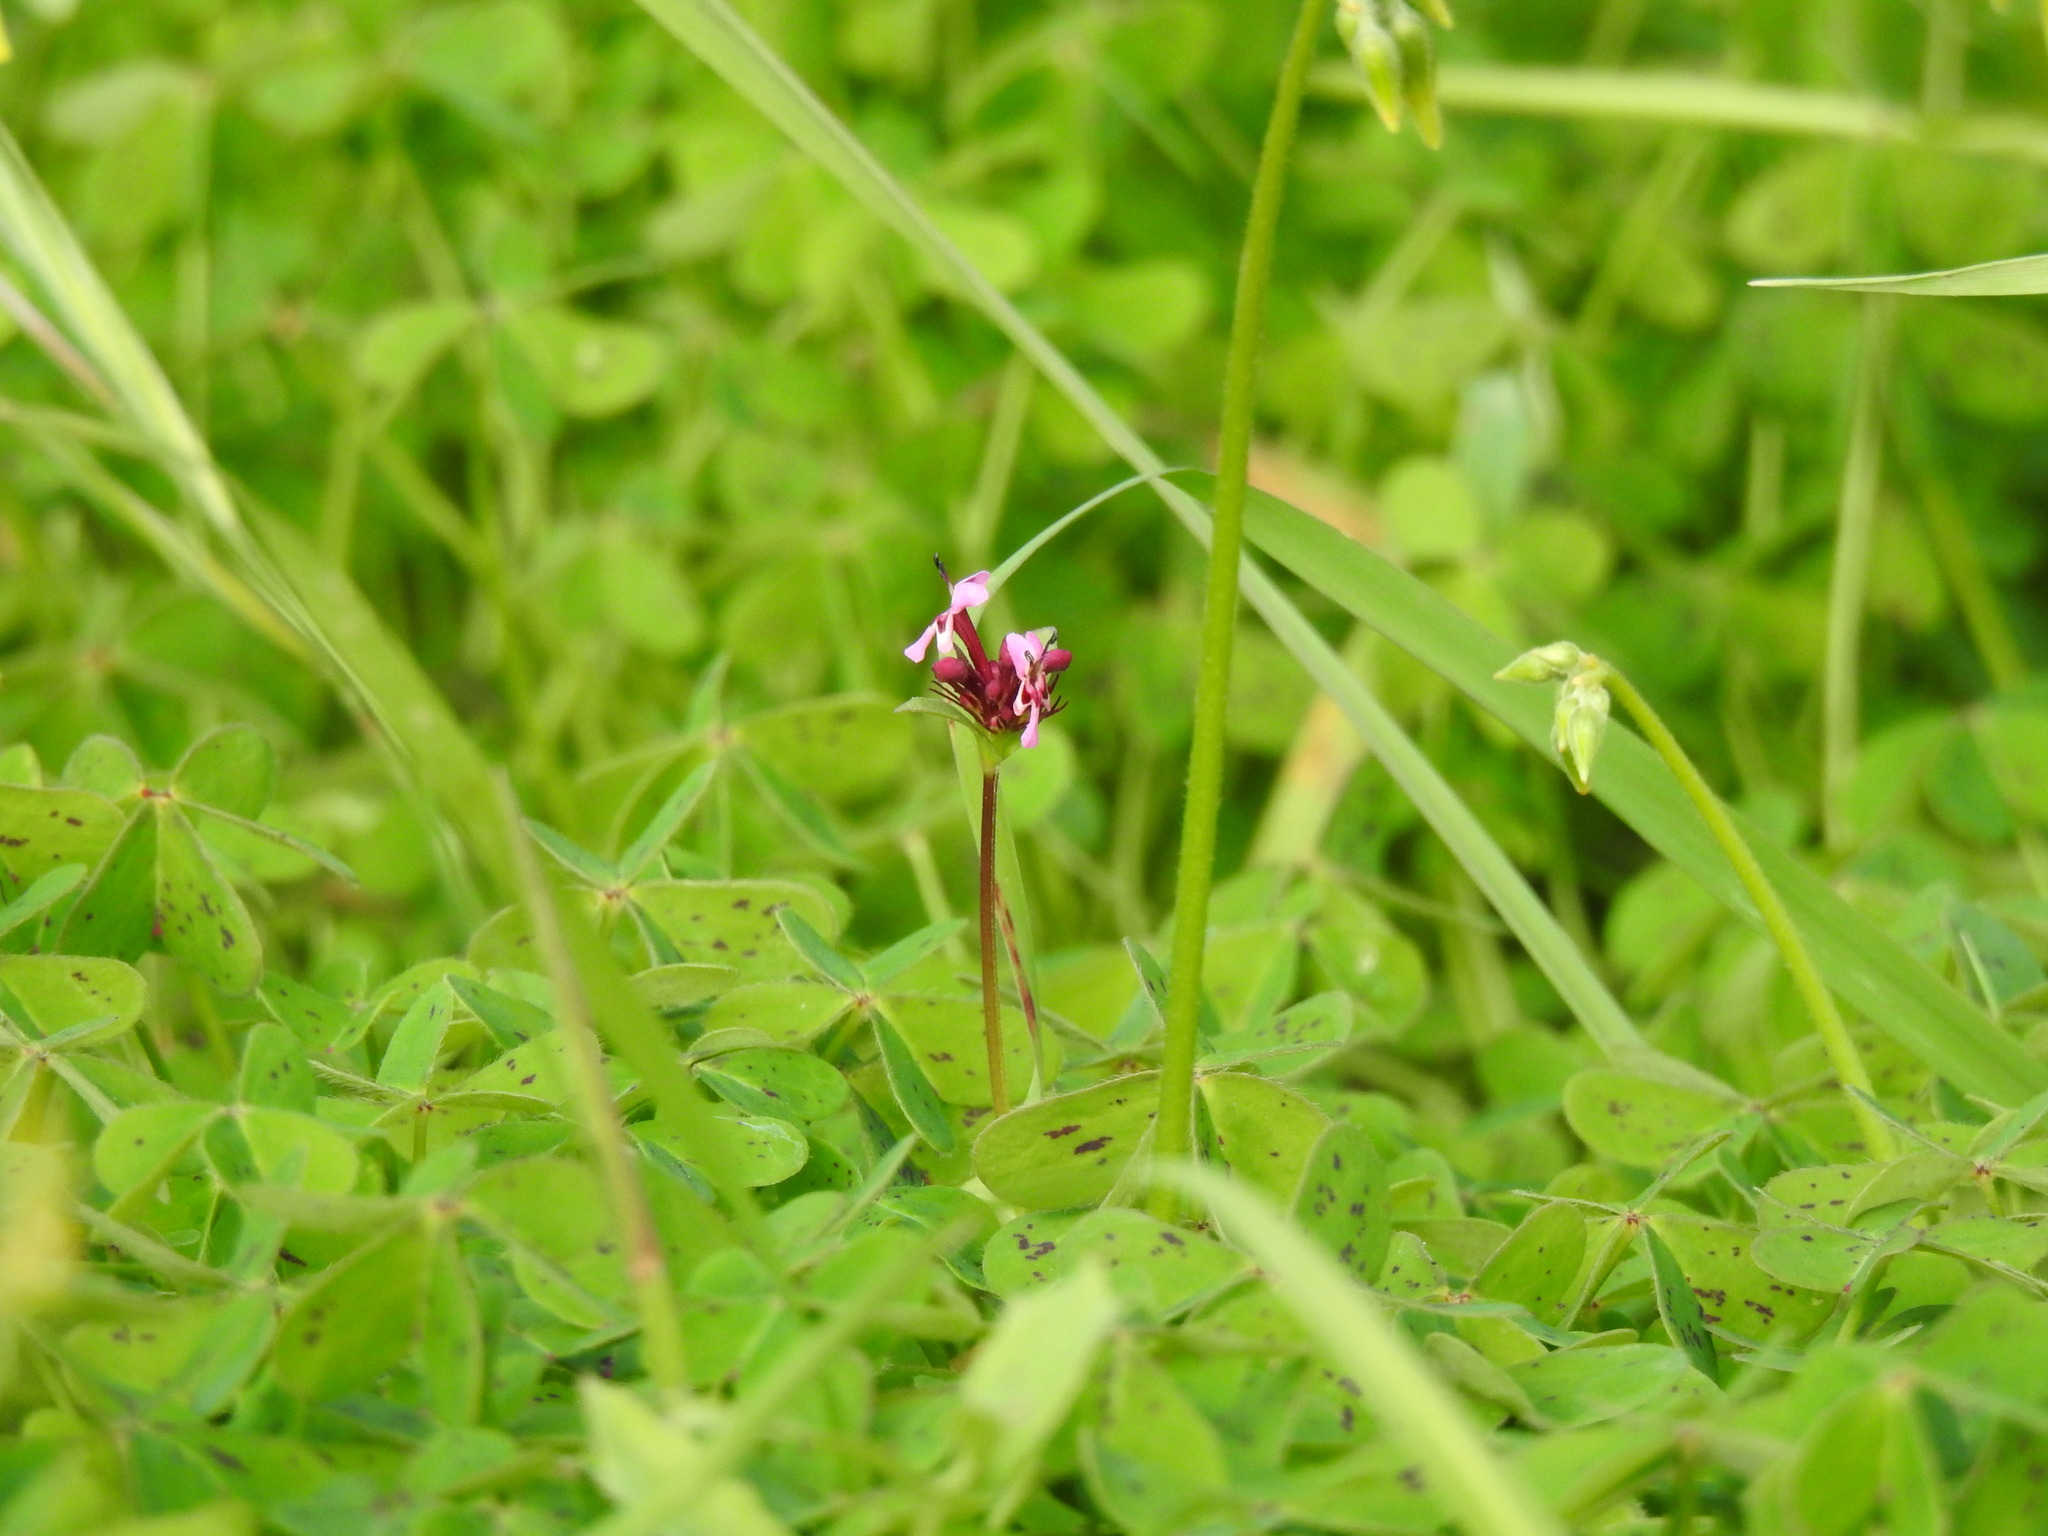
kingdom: Plantae
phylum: Tracheophyta
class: Magnoliopsida
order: Dipsacales
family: Caprifoliaceae
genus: Fedia
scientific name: Fedia cornucopiae
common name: Horn-of-plenty
